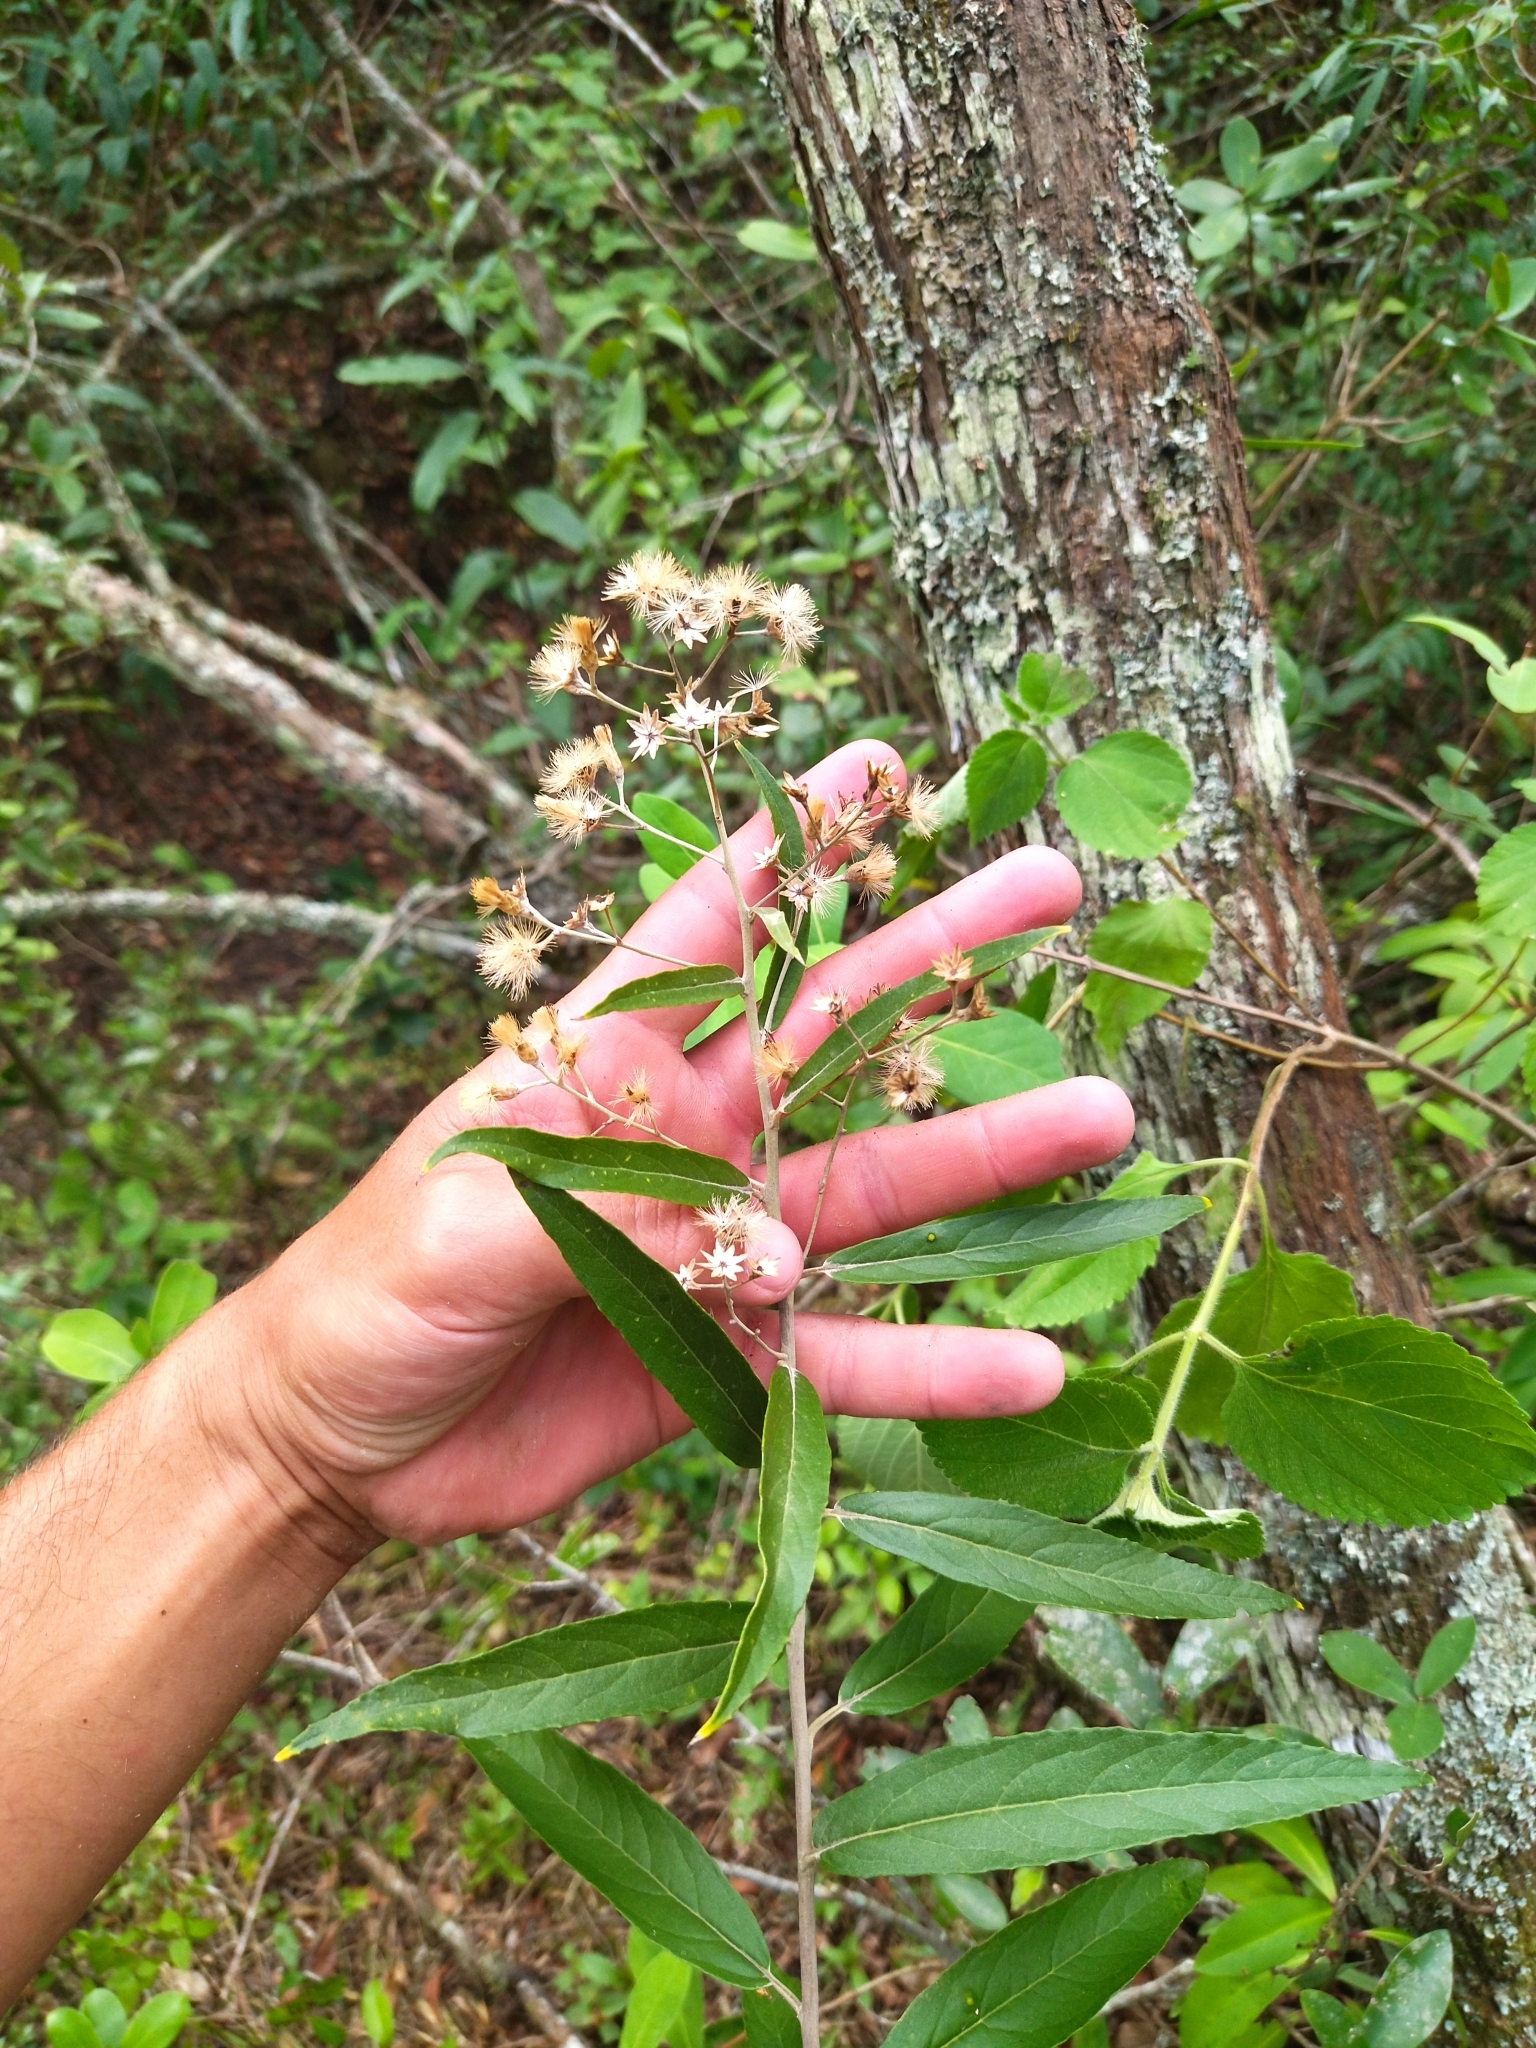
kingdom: Plantae
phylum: Tracheophyta
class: Magnoliopsida
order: Asterales
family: Asteraceae
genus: Moquiniastrum
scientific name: Moquiniastrum polymorphum
